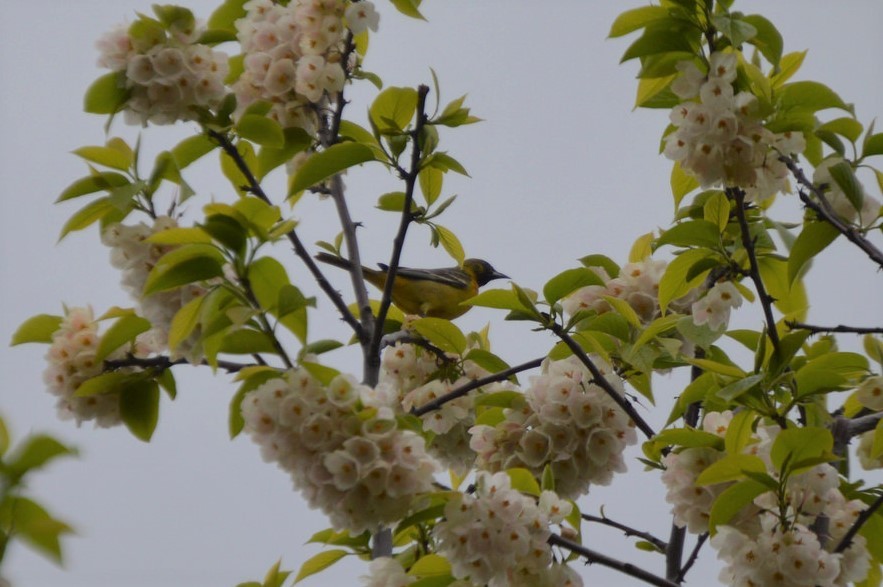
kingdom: Animalia
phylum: Chordata
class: Aves
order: Passeriformes
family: Icteridae
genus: Icterus
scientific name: Icterus spurius
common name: Orchard oriole
